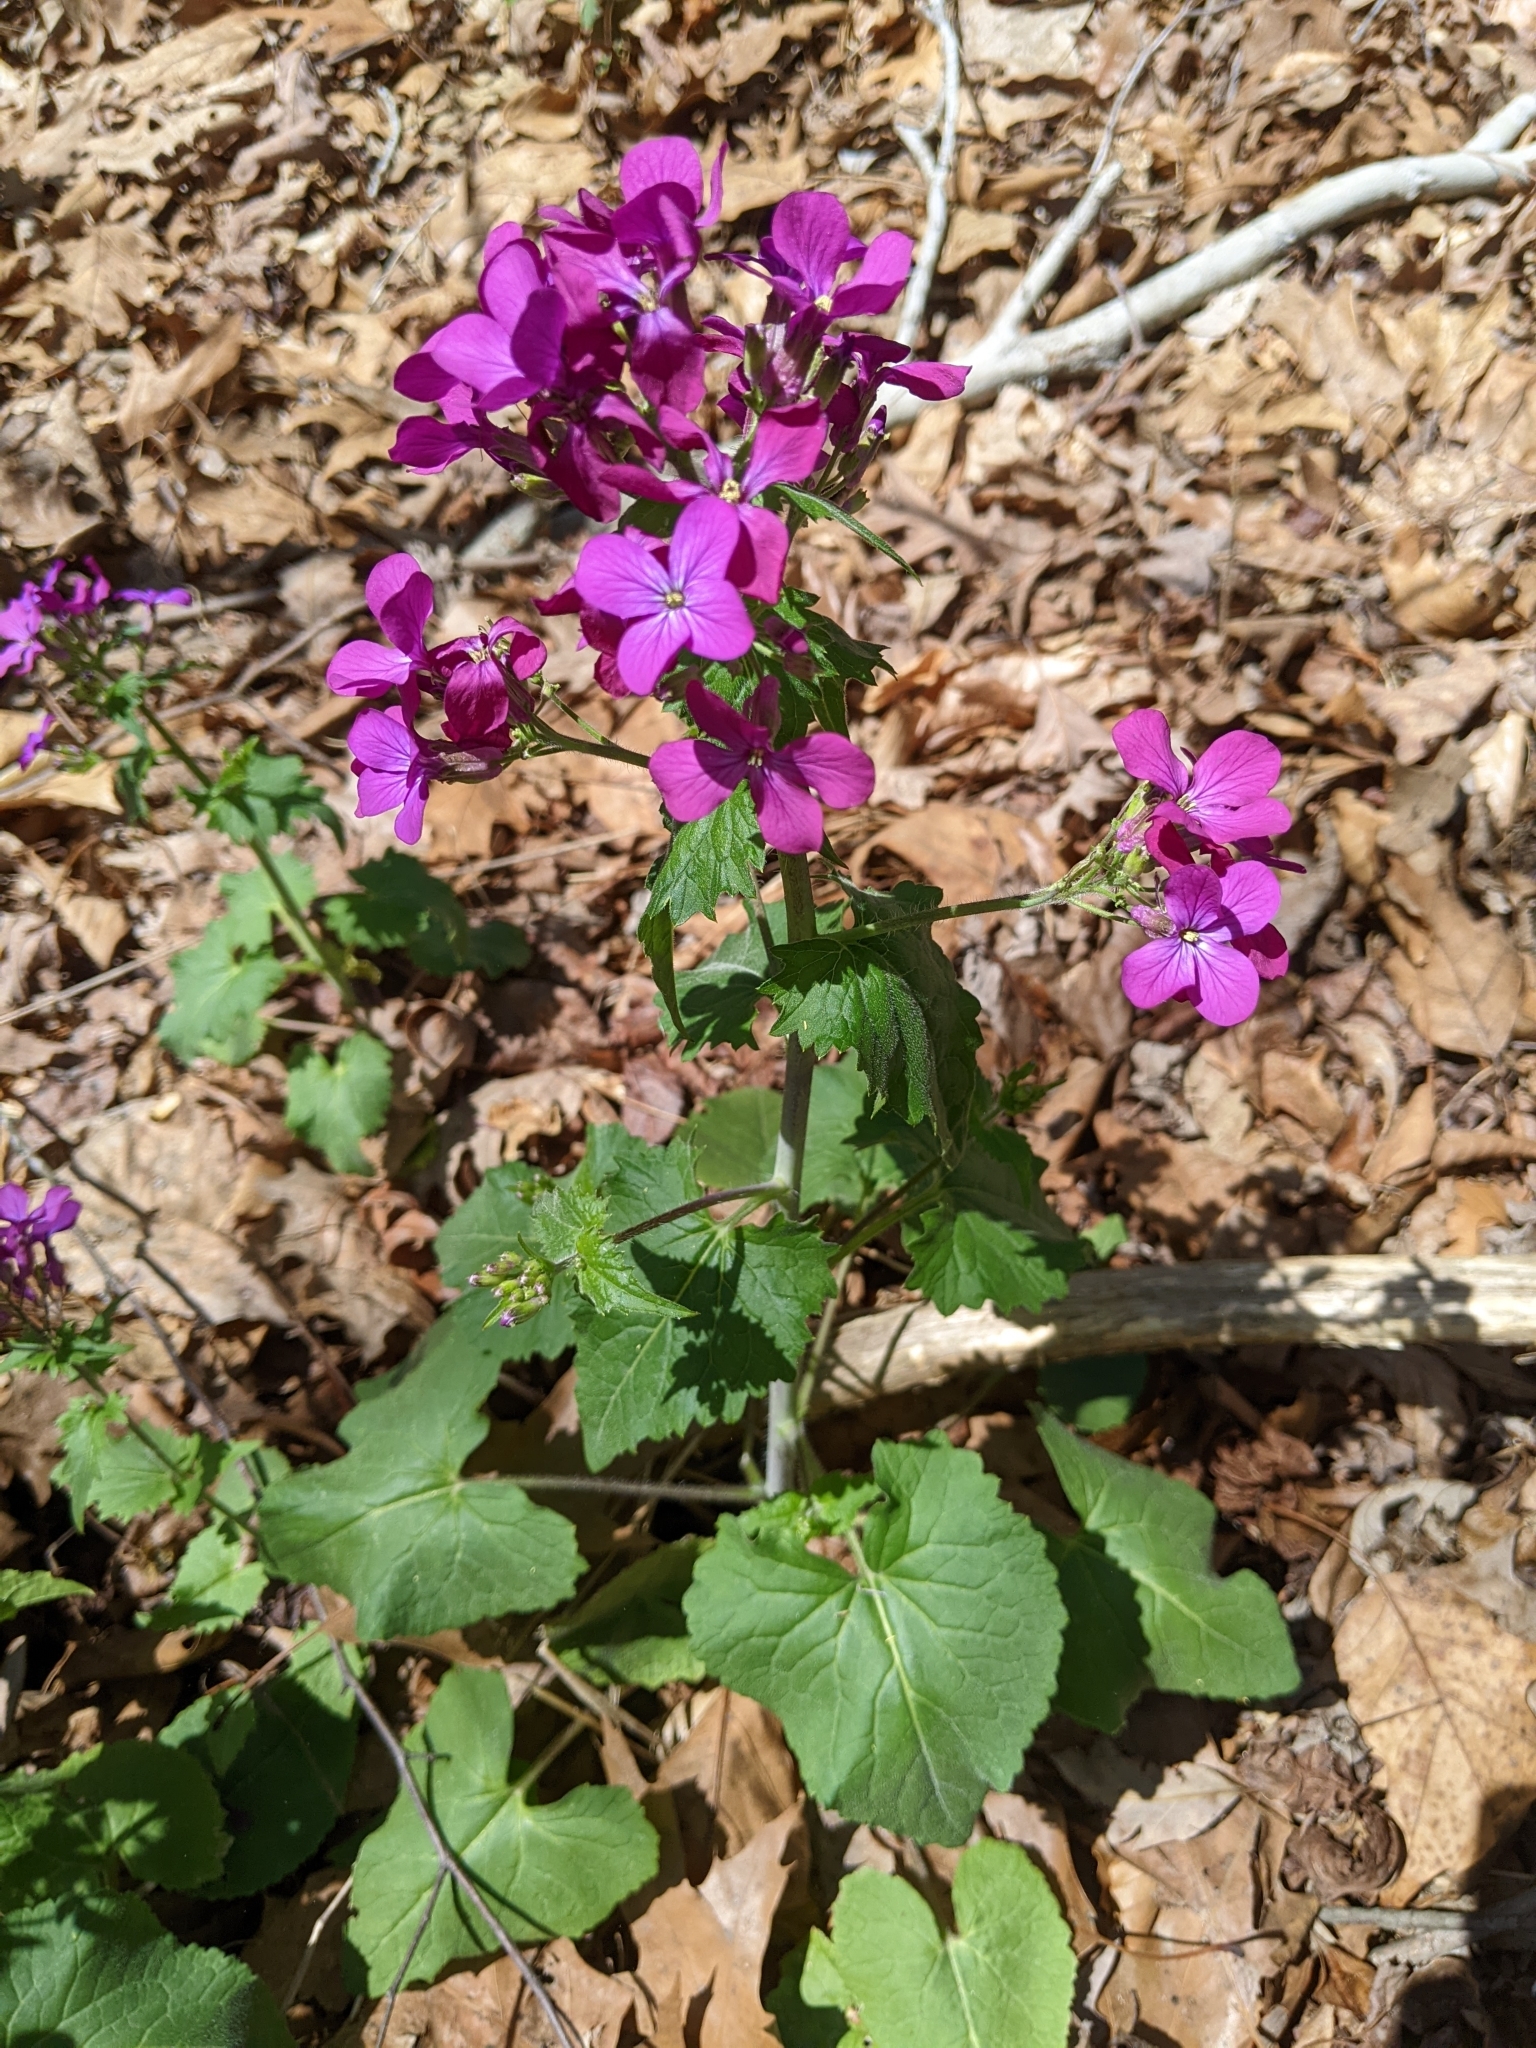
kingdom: Plantae
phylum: Tracheophyta
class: Magnoliopsida
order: Brassicales
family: Brassicaceae
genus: Lunaria
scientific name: Lunaria annua
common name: Honesty
